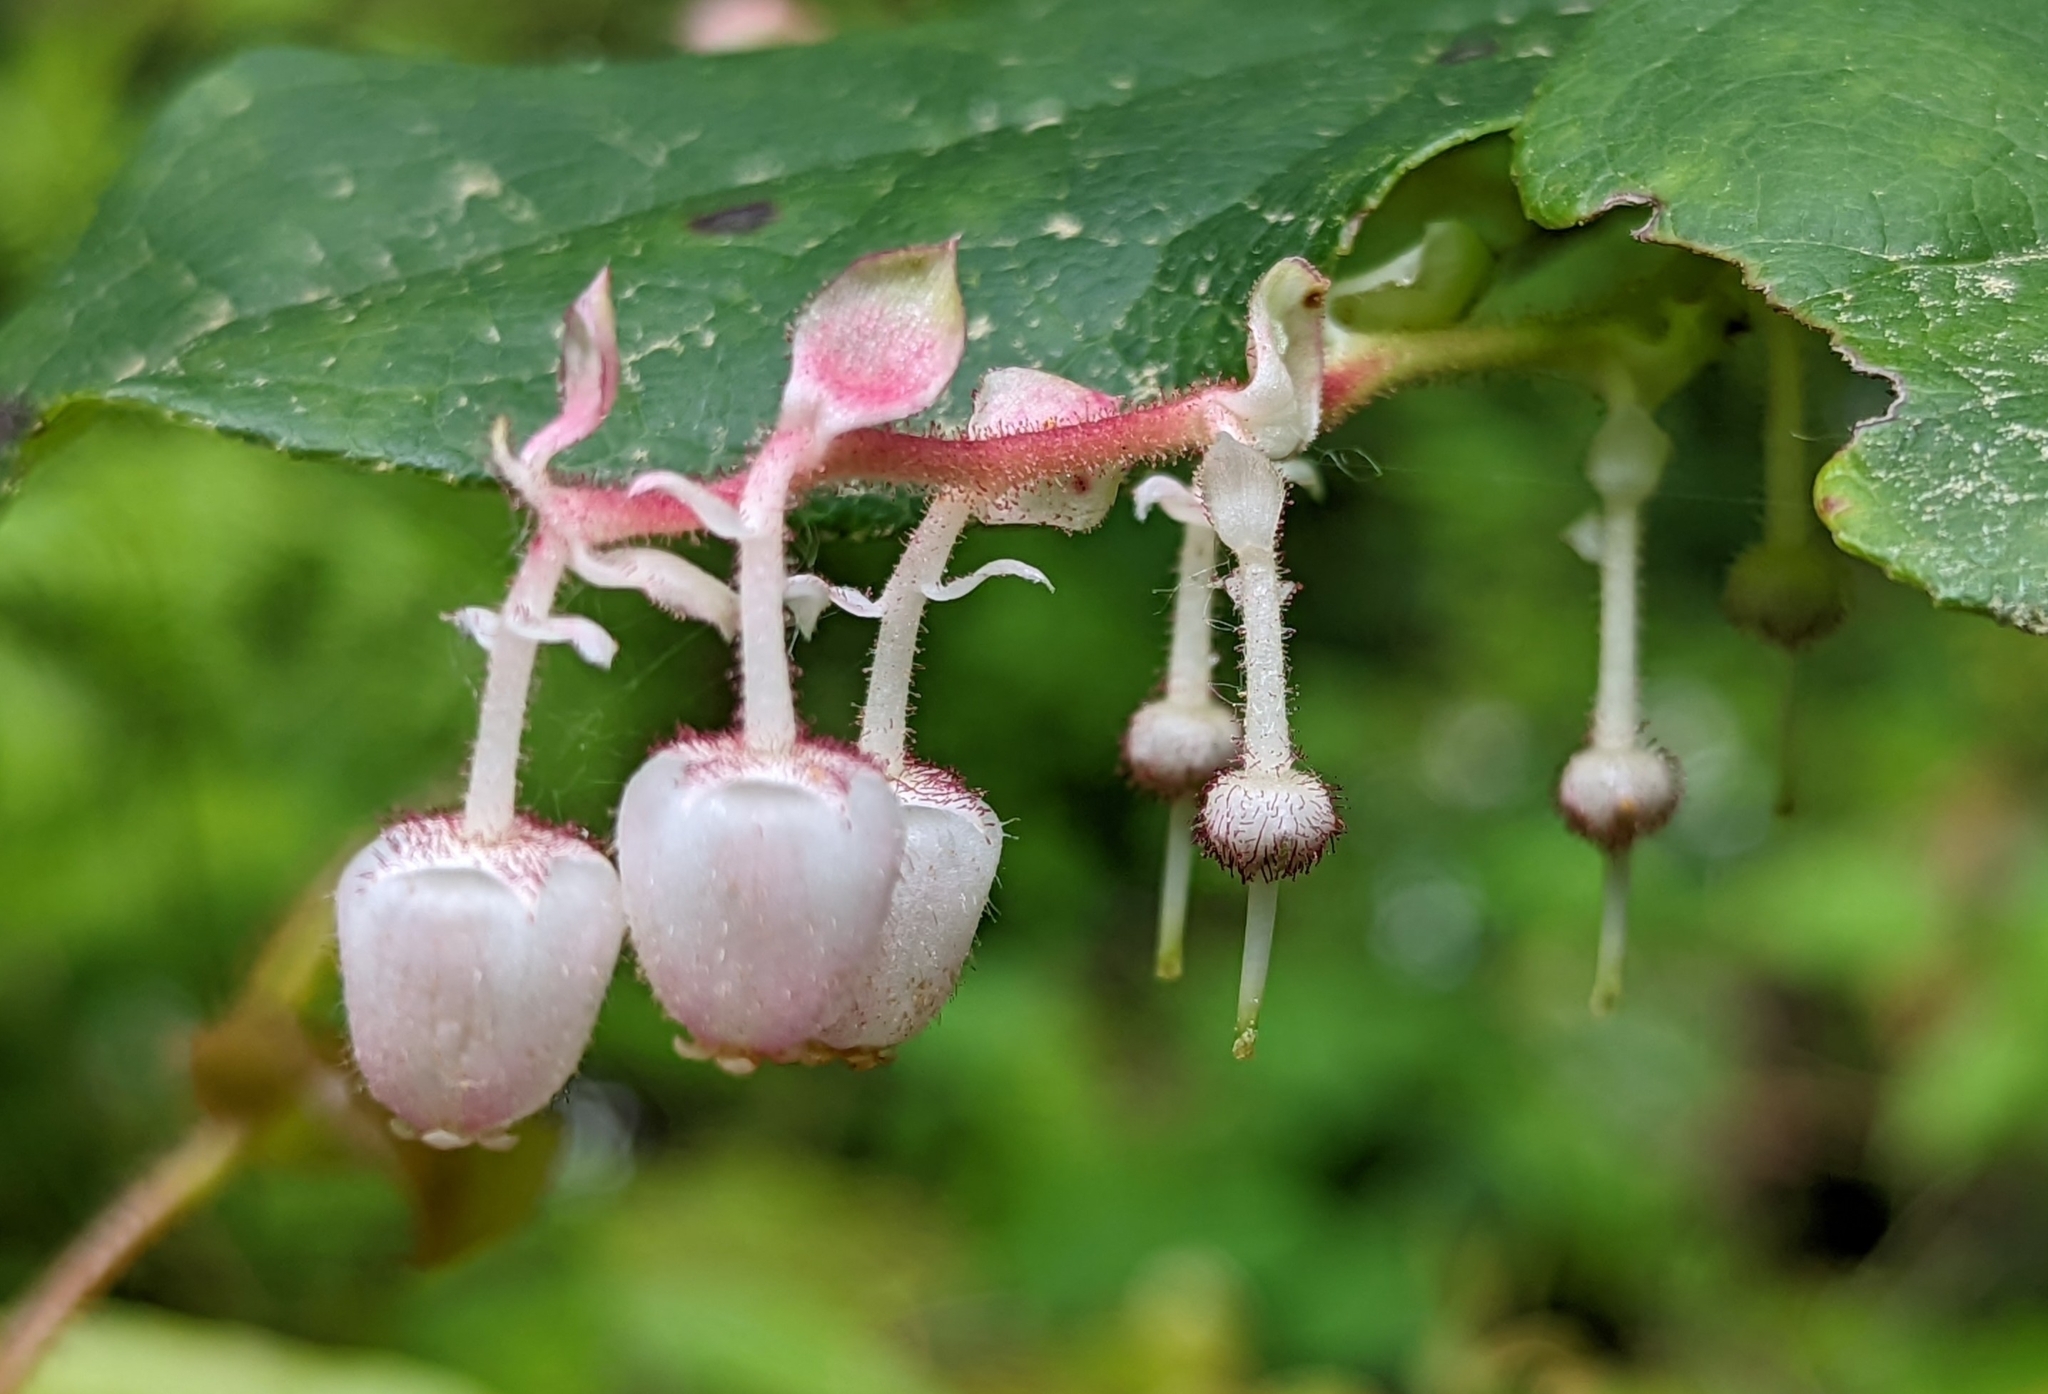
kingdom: Plantae
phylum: Tracheophyta
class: Magnoliopsida
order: Ericales
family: Ericaceae
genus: Gaultheria
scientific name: Gaultheria shallon
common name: Shallon
